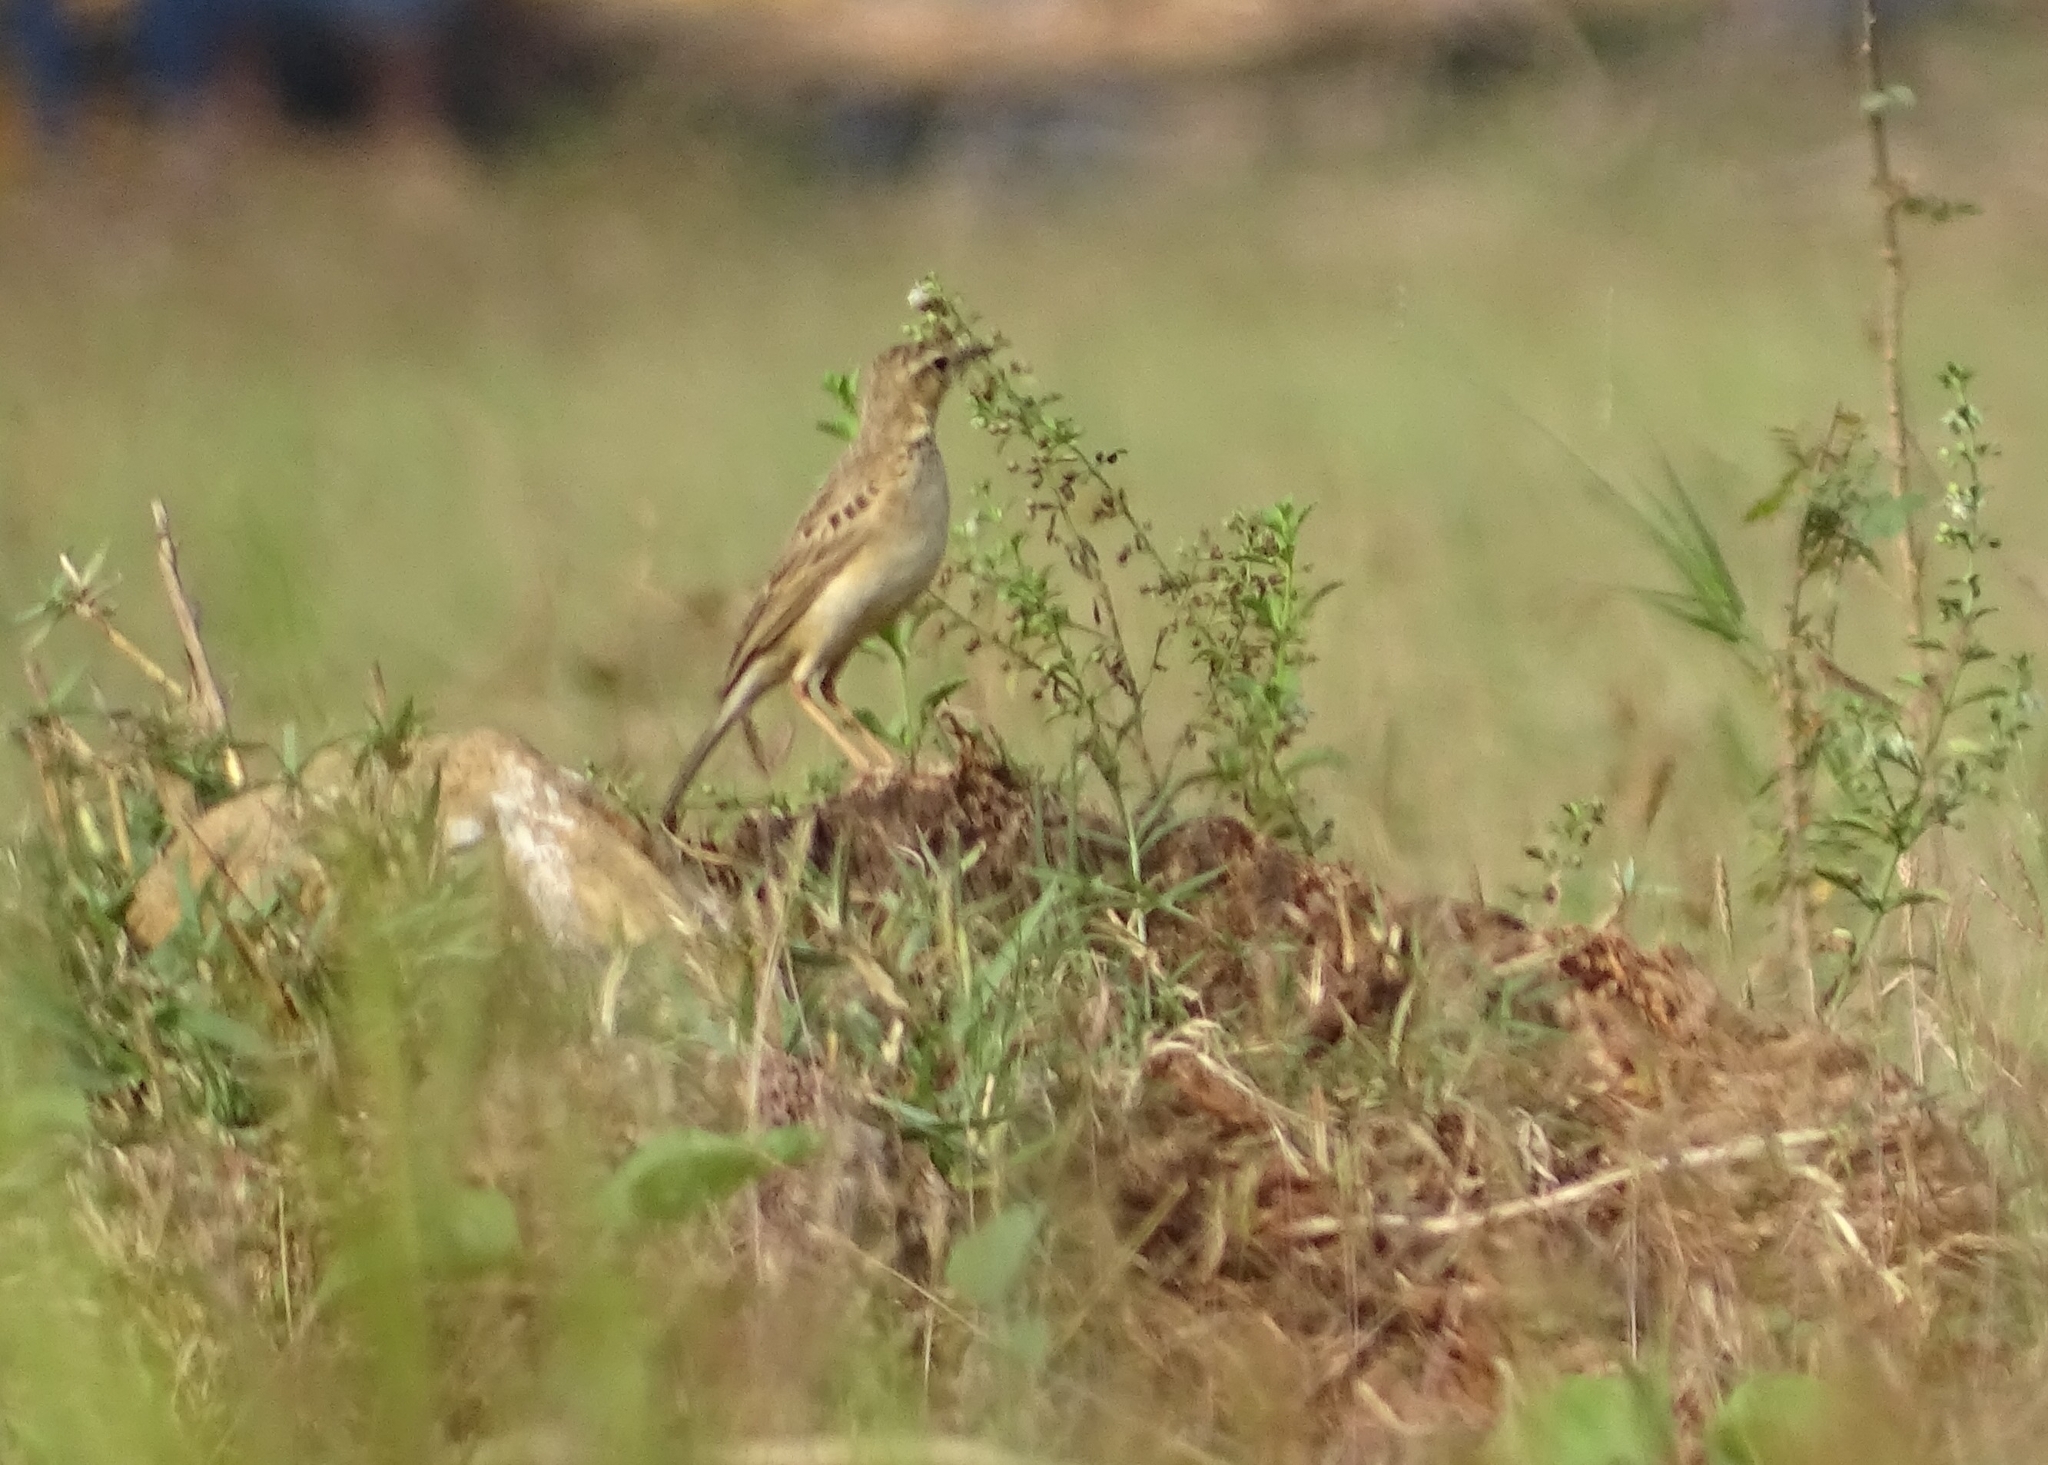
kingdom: Animalia
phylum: Chordata
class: Aves
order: Passeriformes
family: Motacillidae
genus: Anthus
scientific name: Anthus rufulus
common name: Paddyfield pipit
